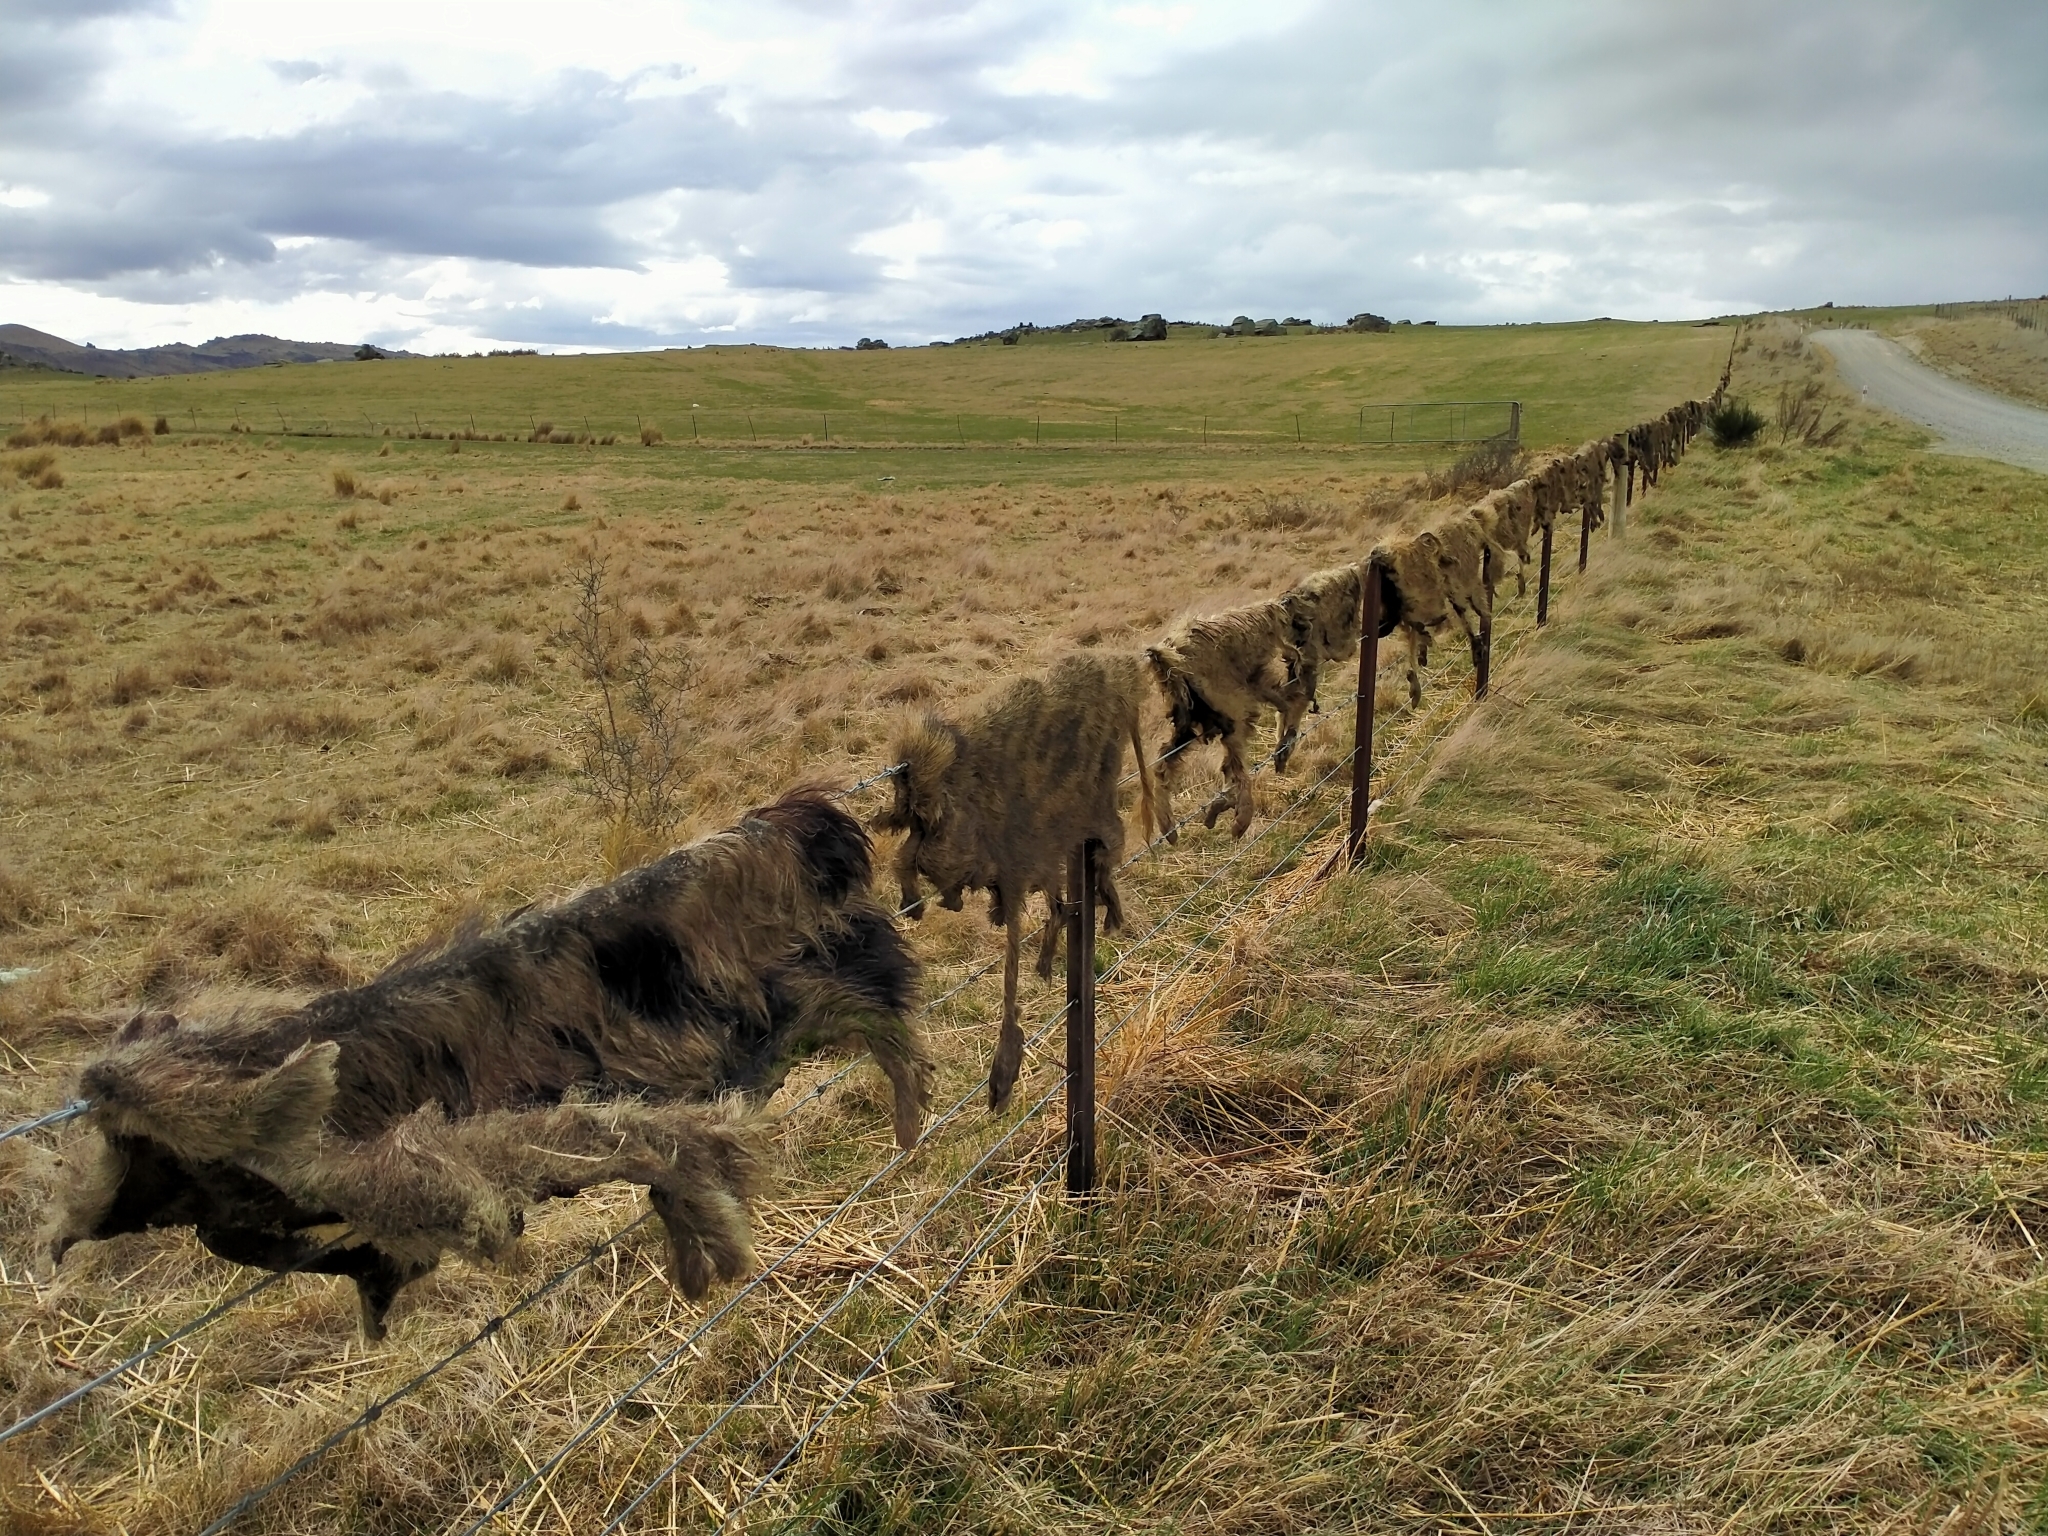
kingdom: Animalia
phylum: Chordata
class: Mammalia
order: Artiodactyla
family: Suidae
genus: Sus
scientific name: Sus scrofa
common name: Wild boar
